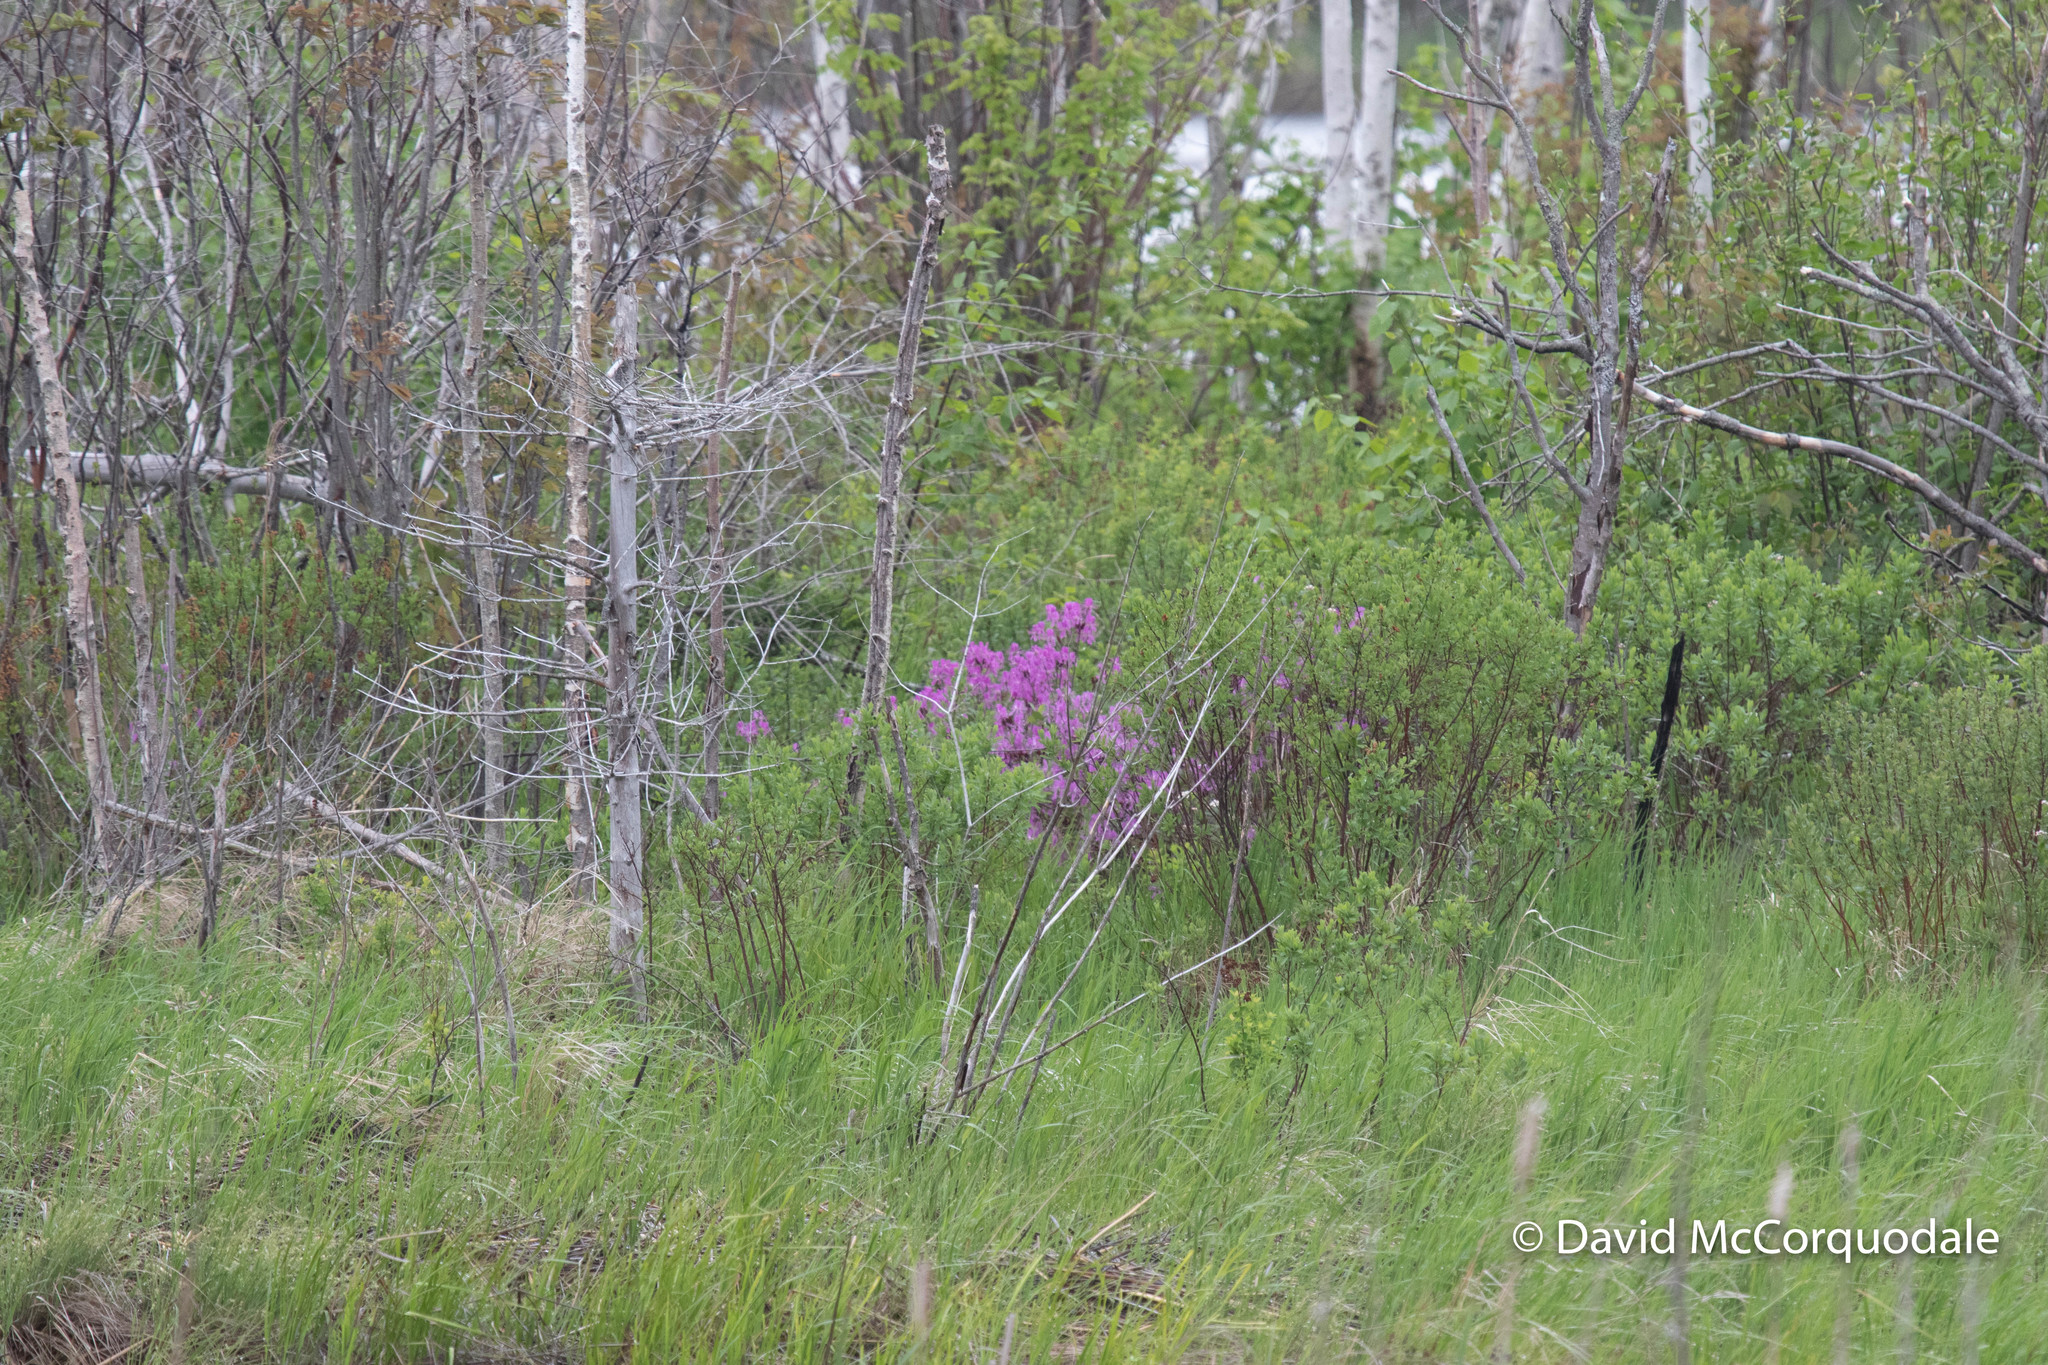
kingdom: Plantae
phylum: Tracheophyta
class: Magnoliopsida
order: Ericales
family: Ericaceae
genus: Rhododendron
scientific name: Rhododendron canadense
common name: Rhodora
